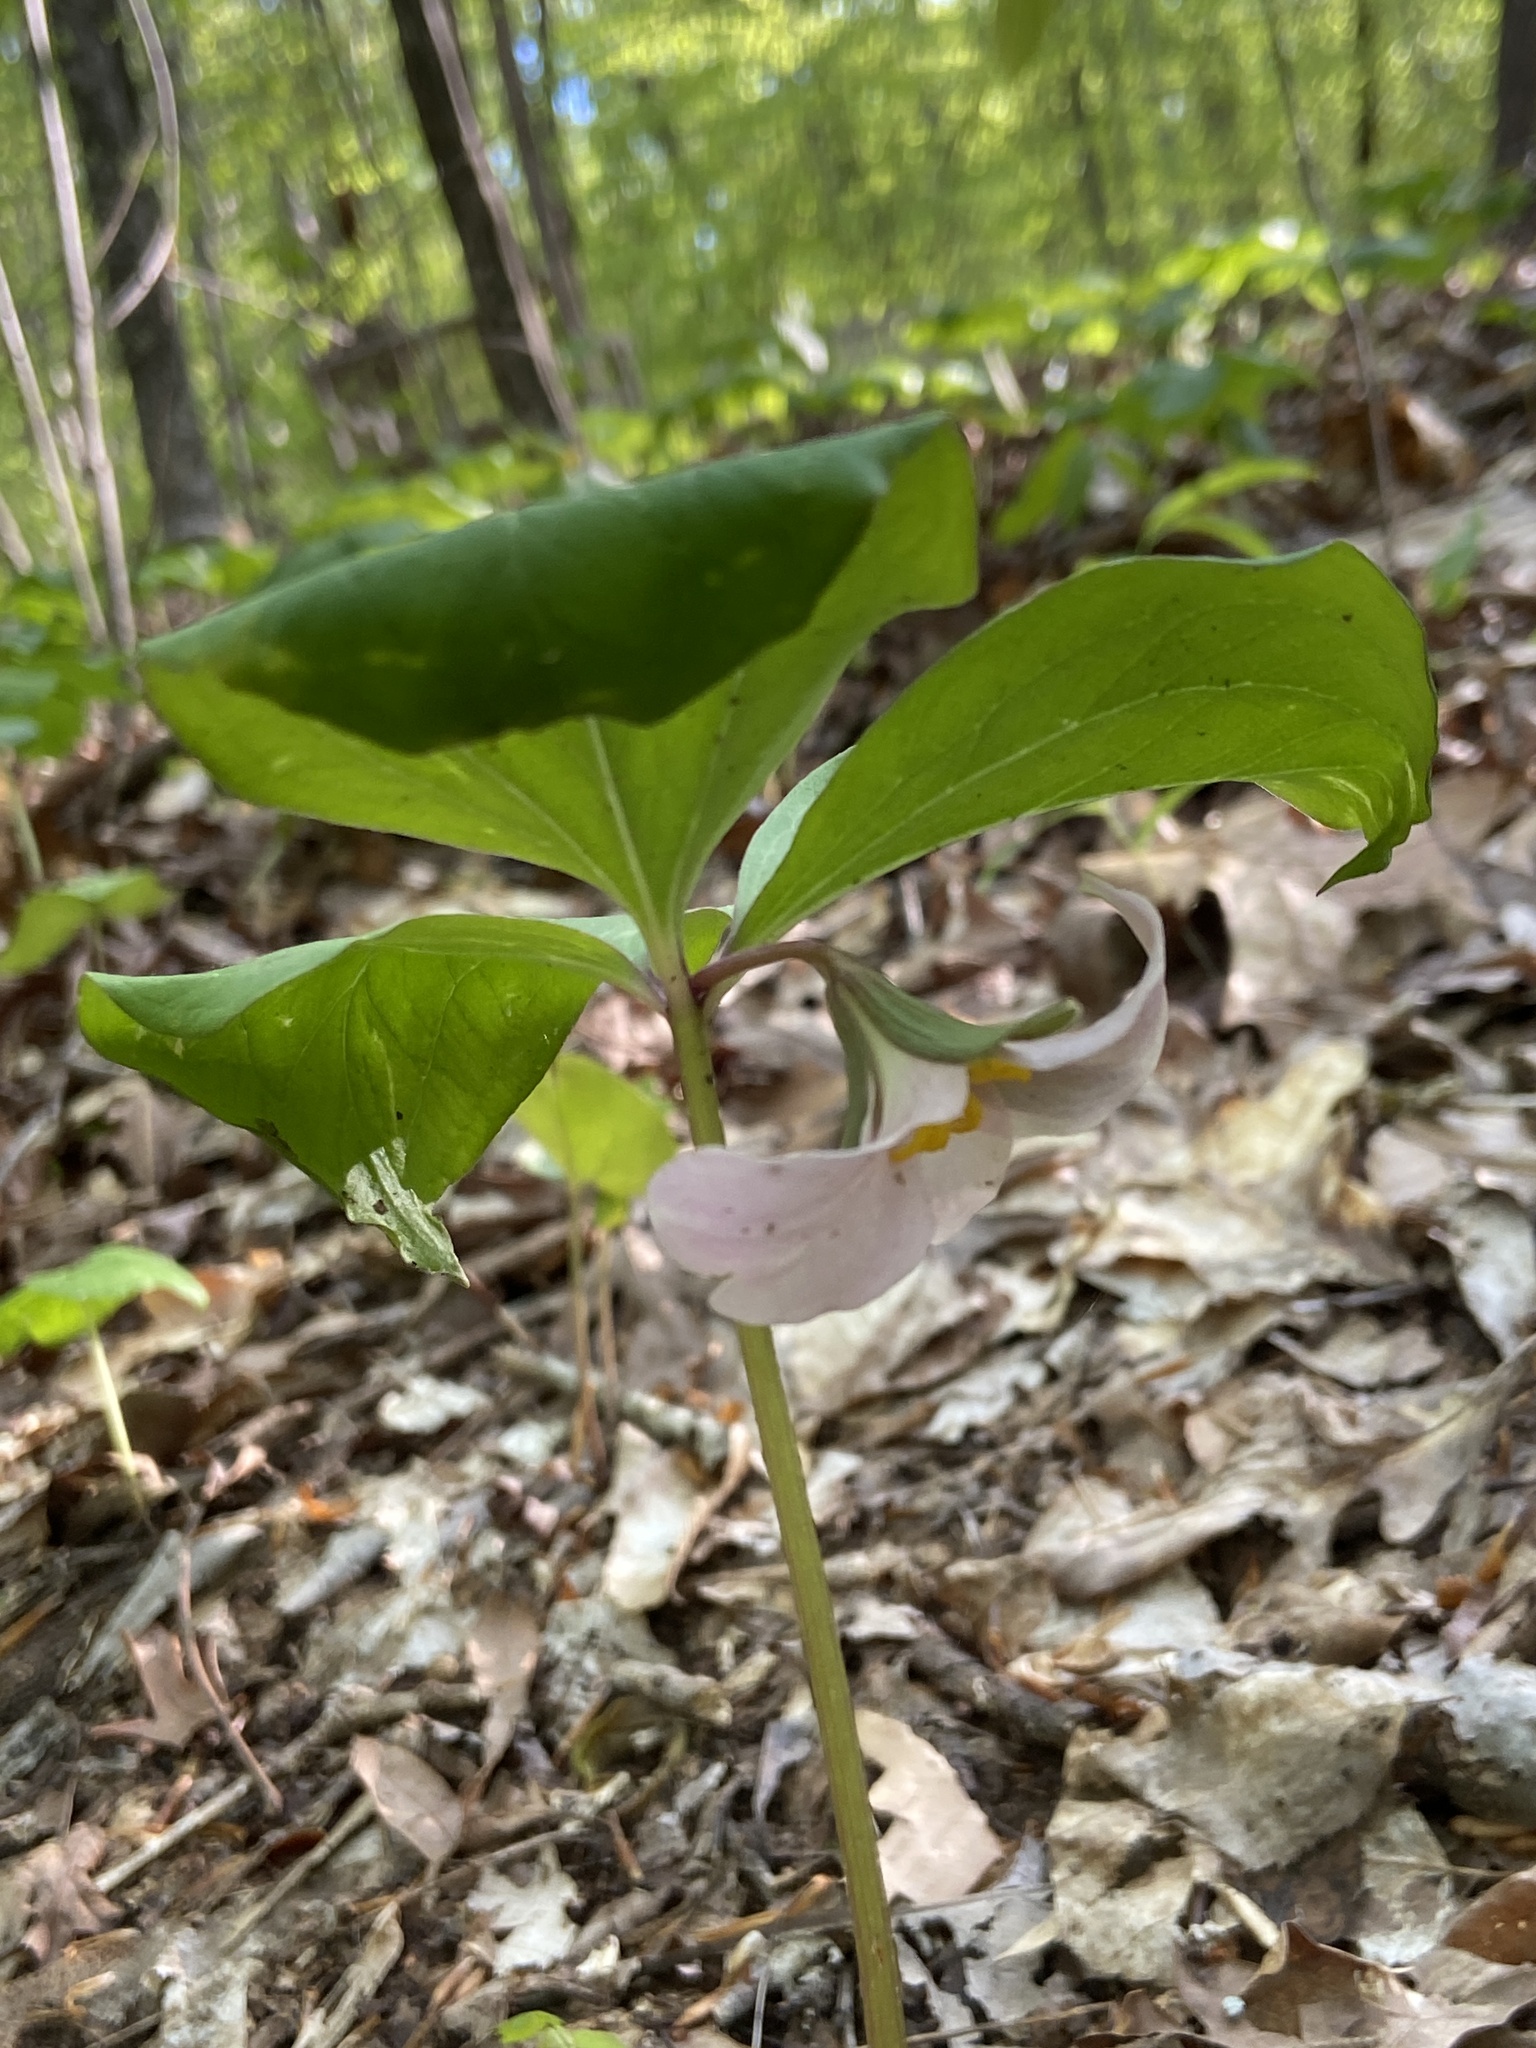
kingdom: Plantae
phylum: Tracheophyta
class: Liliopsida
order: Liliales
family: Melanthiaceae
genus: Trillium
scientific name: Trillium catesbaei
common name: Bashful trillium
